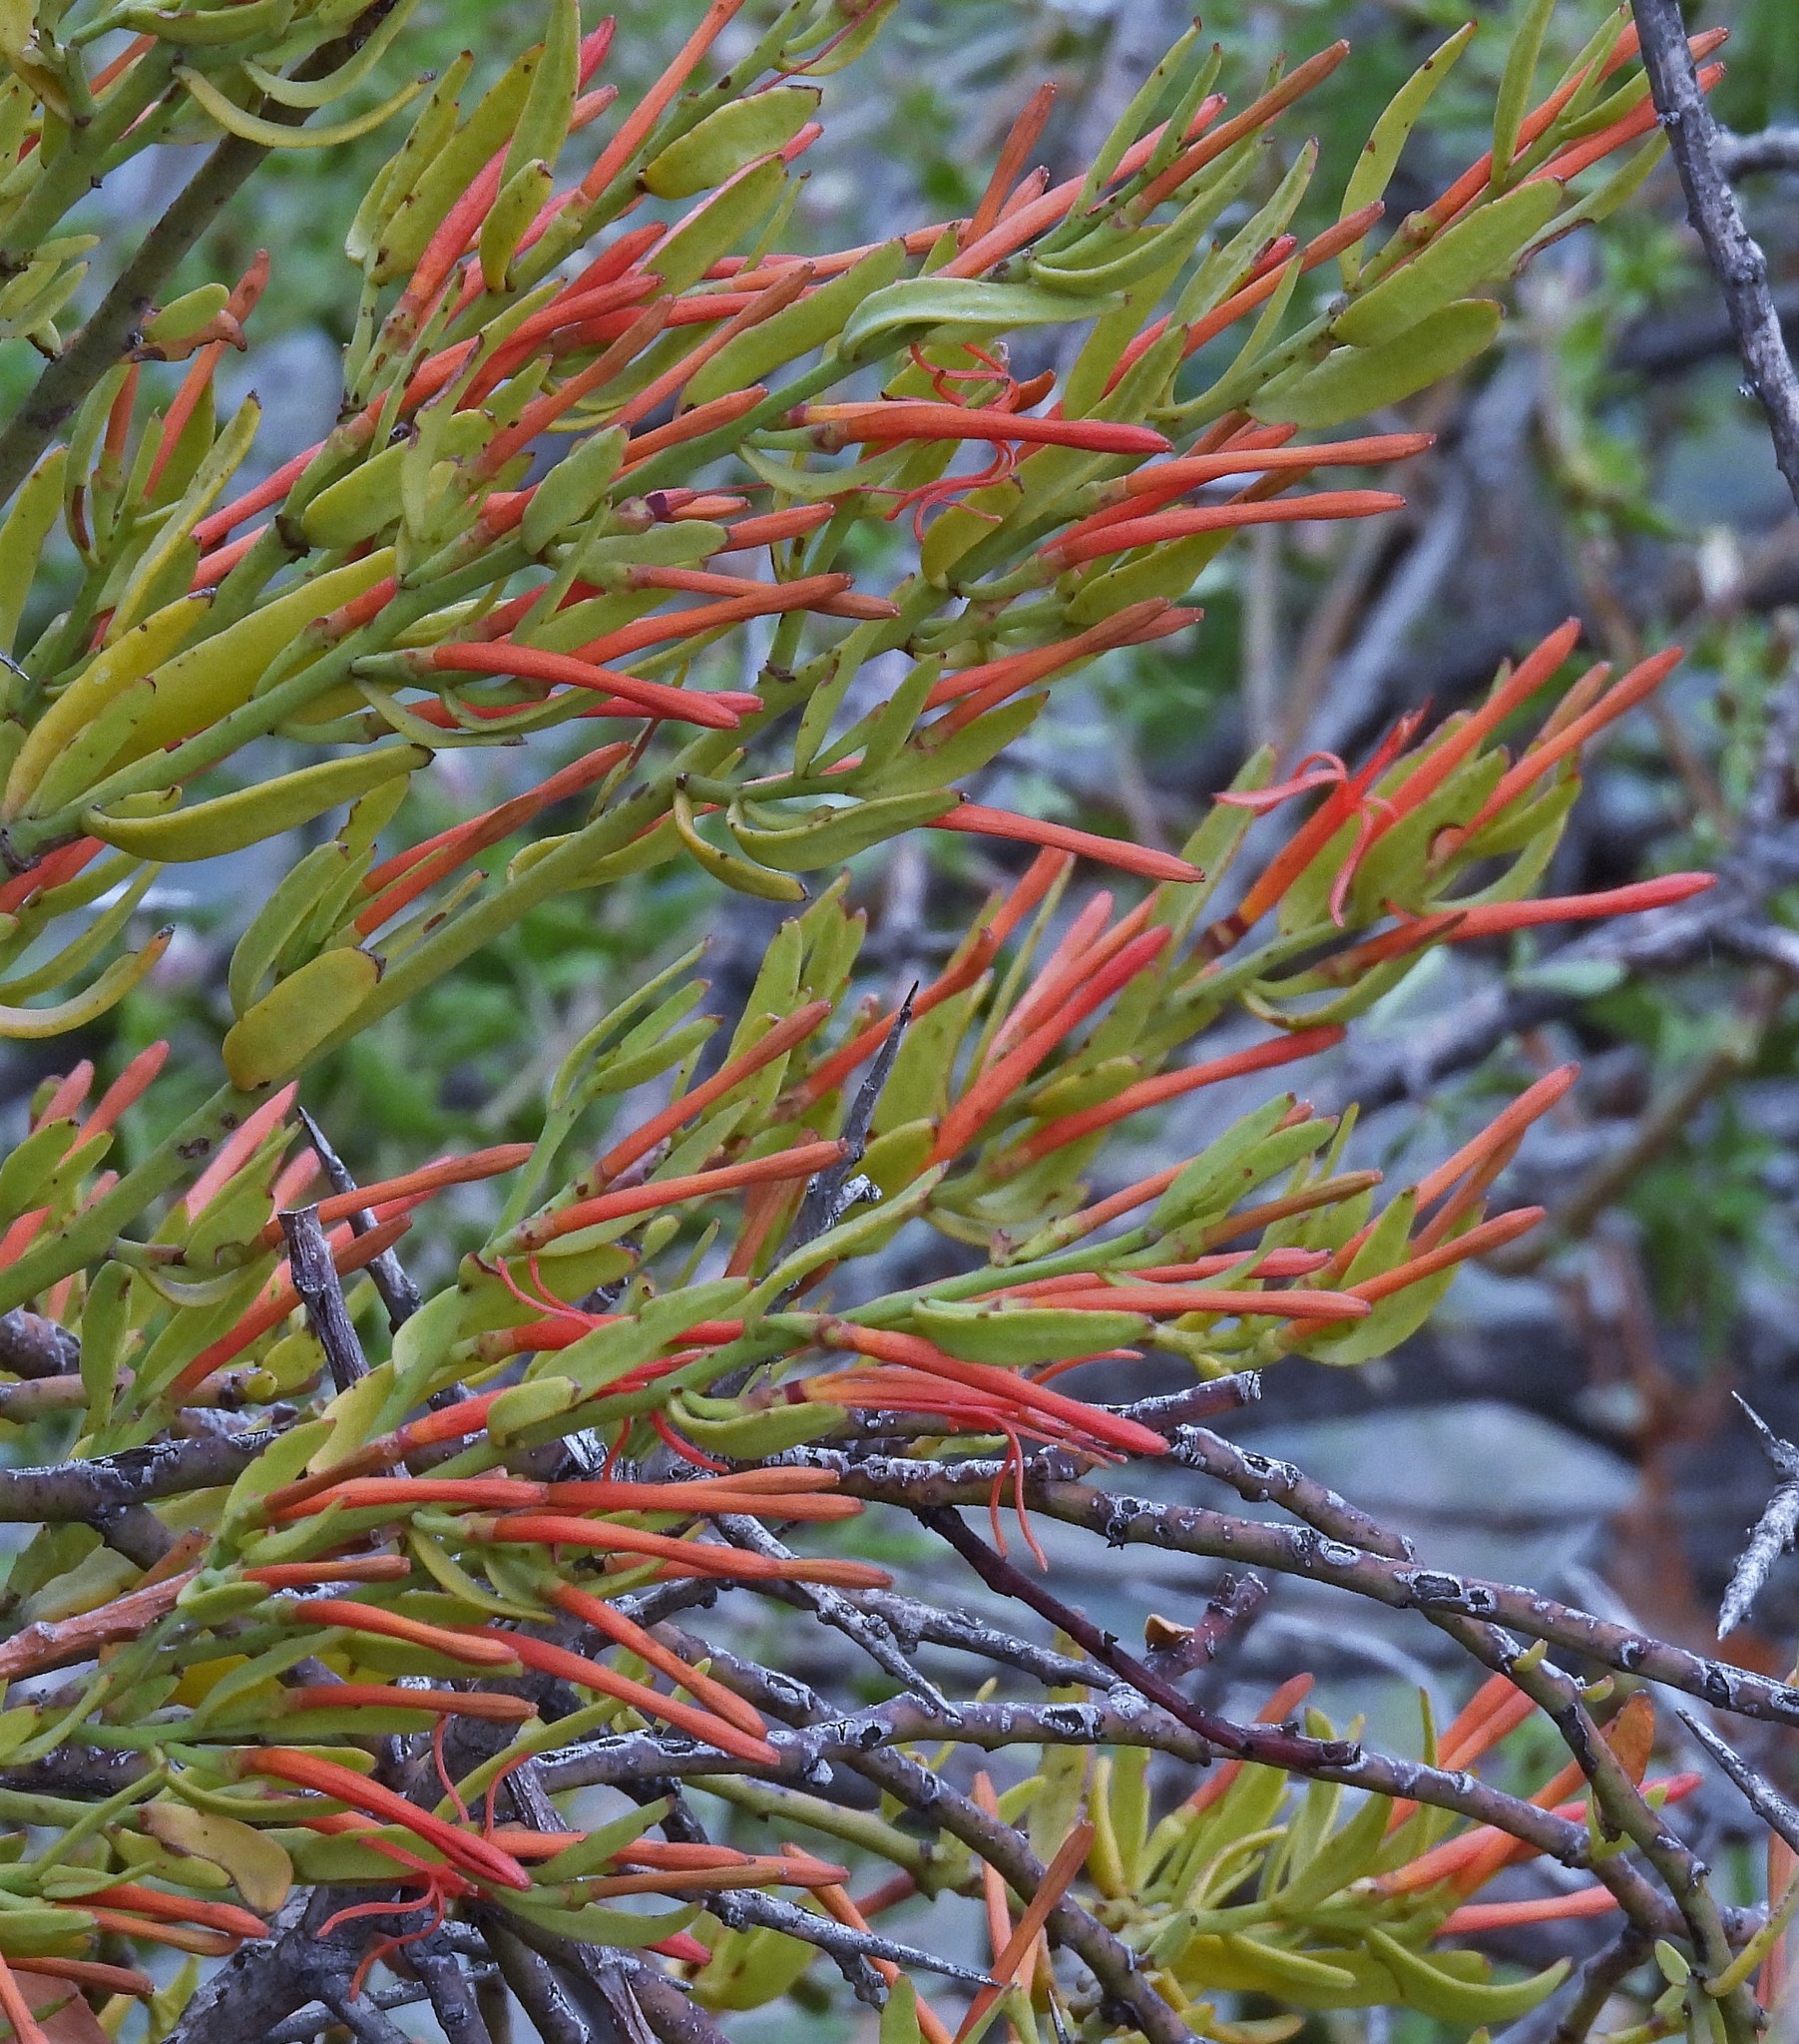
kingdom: Plantae
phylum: Tracheophyta
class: Magnoliopsida
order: Santalales
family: Loranthaceae
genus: Ligaria
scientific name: Ligaria cuneifolia
